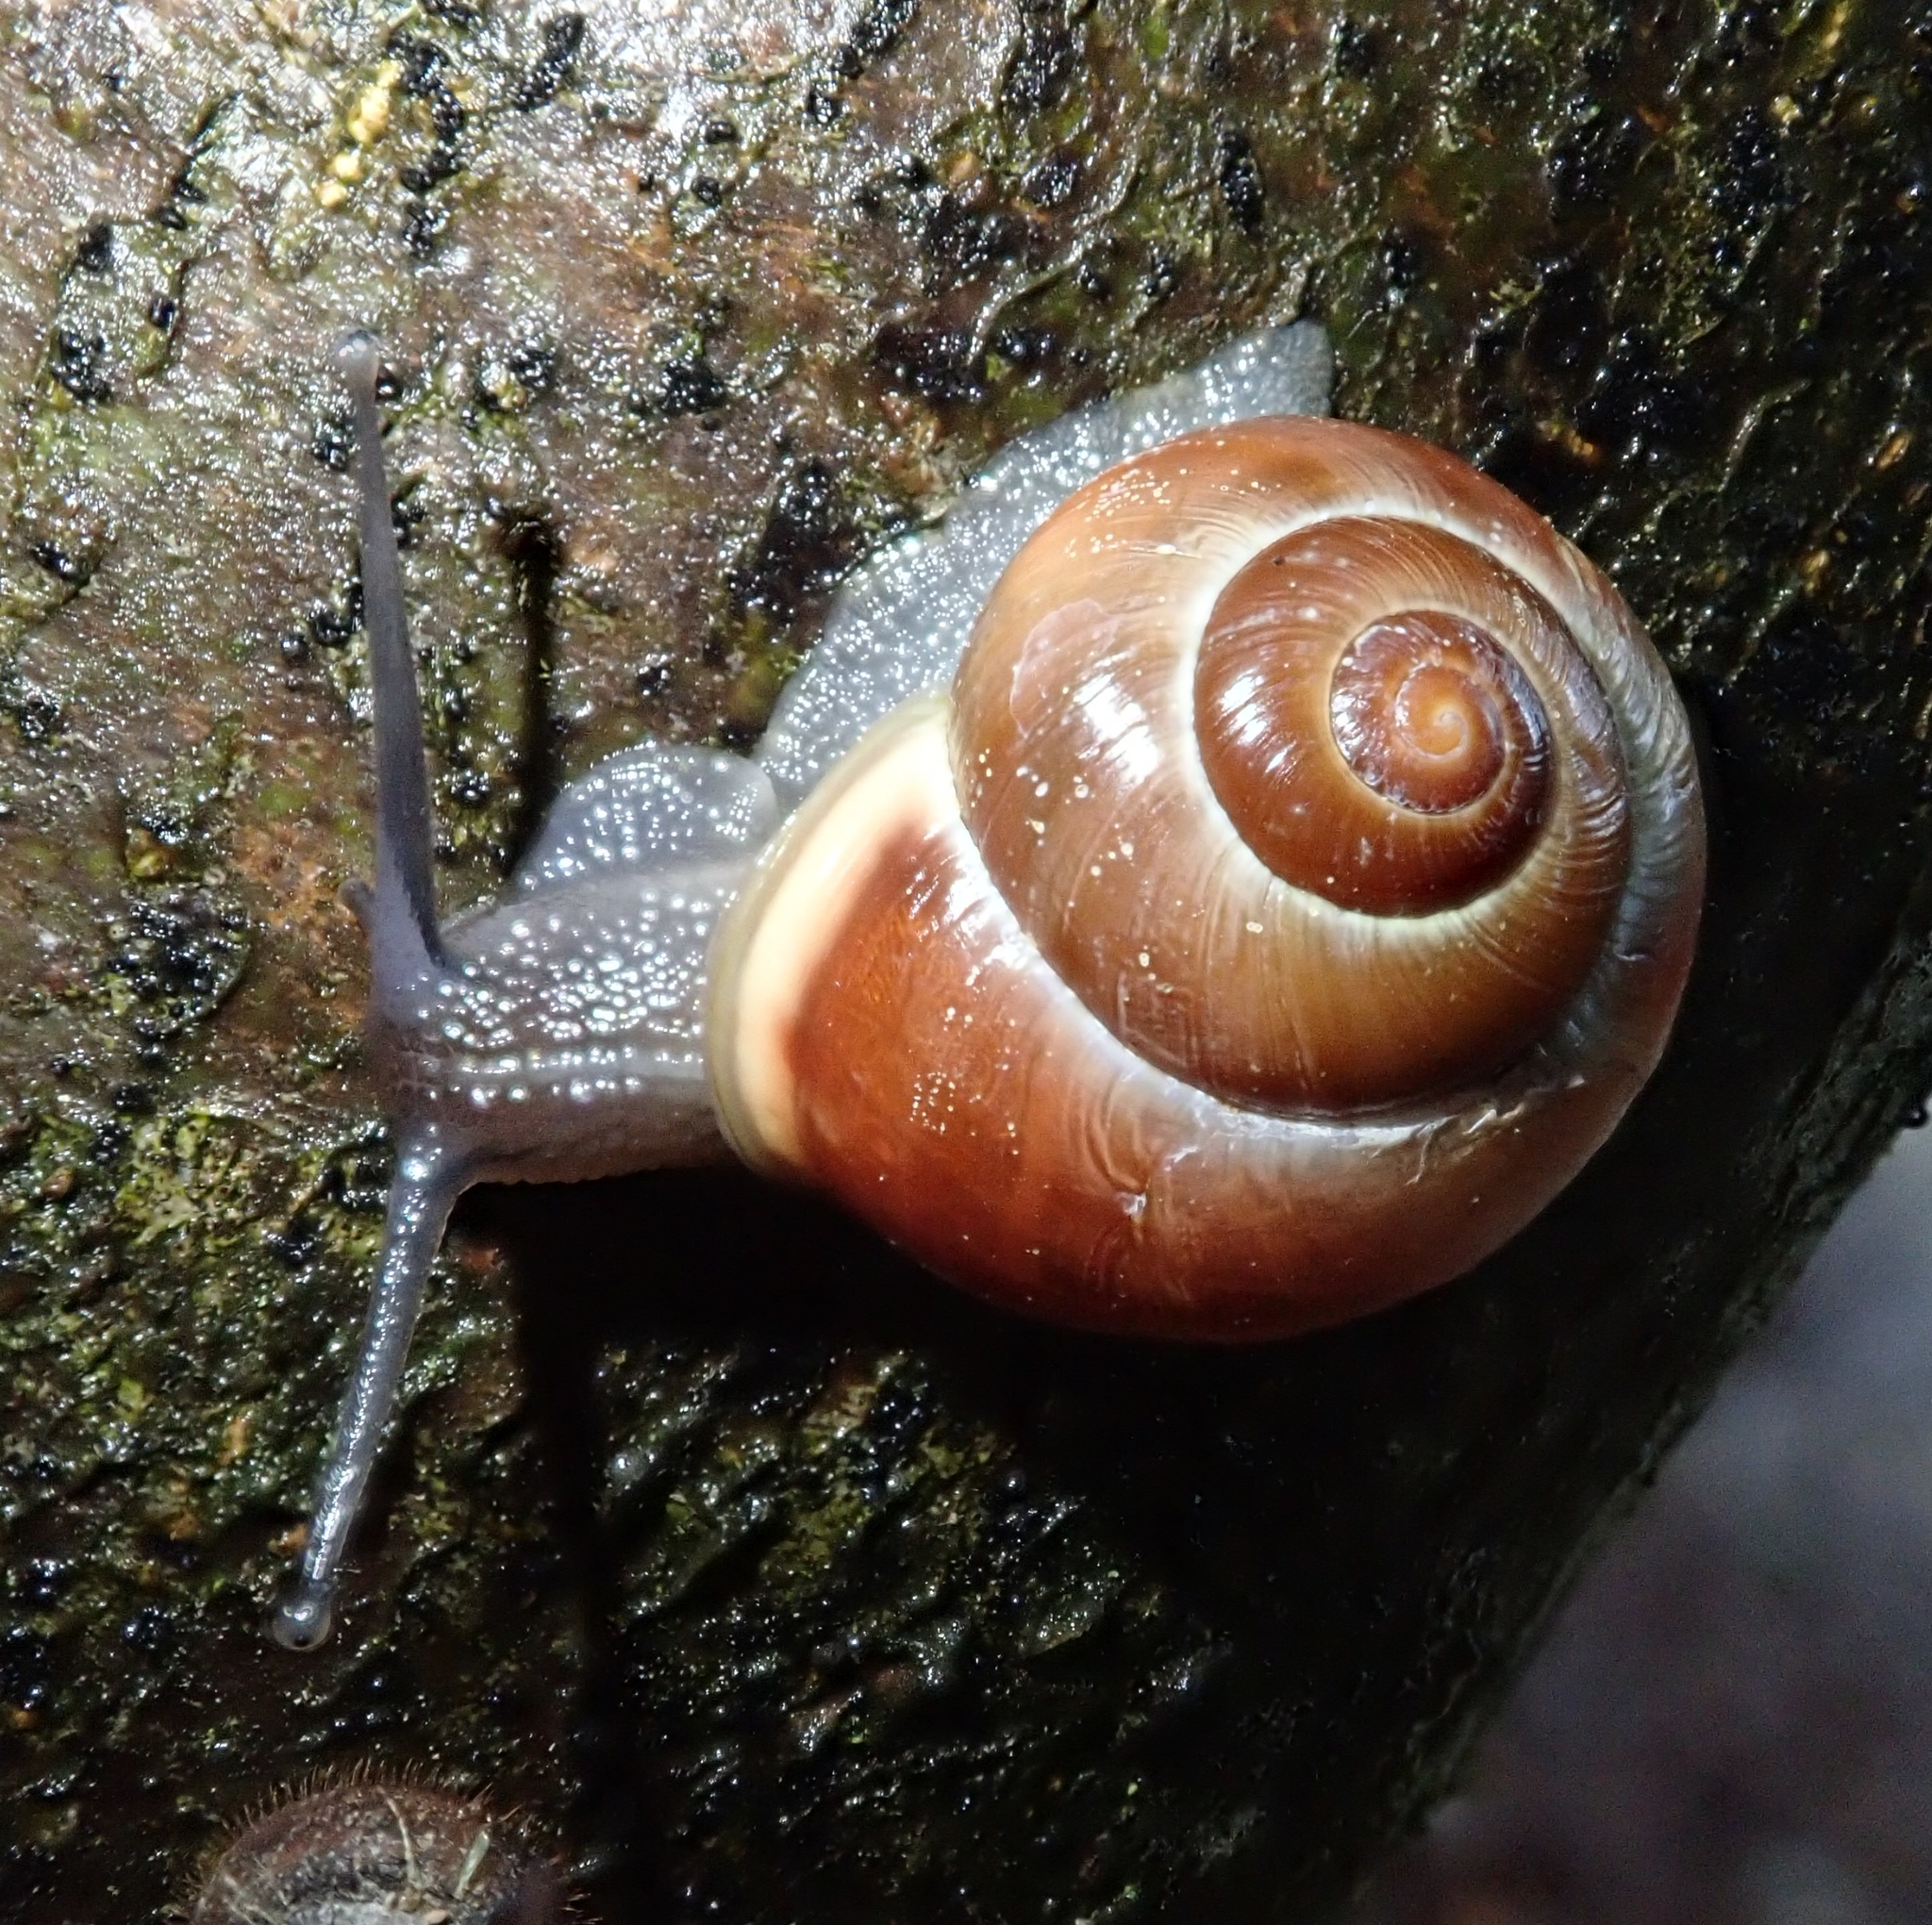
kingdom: Animalia
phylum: Mollusca
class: Gastropoda
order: Stylommatophora
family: Helicidae
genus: Cepaea
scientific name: Cepaea hortensis
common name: White-lip gardensnail
